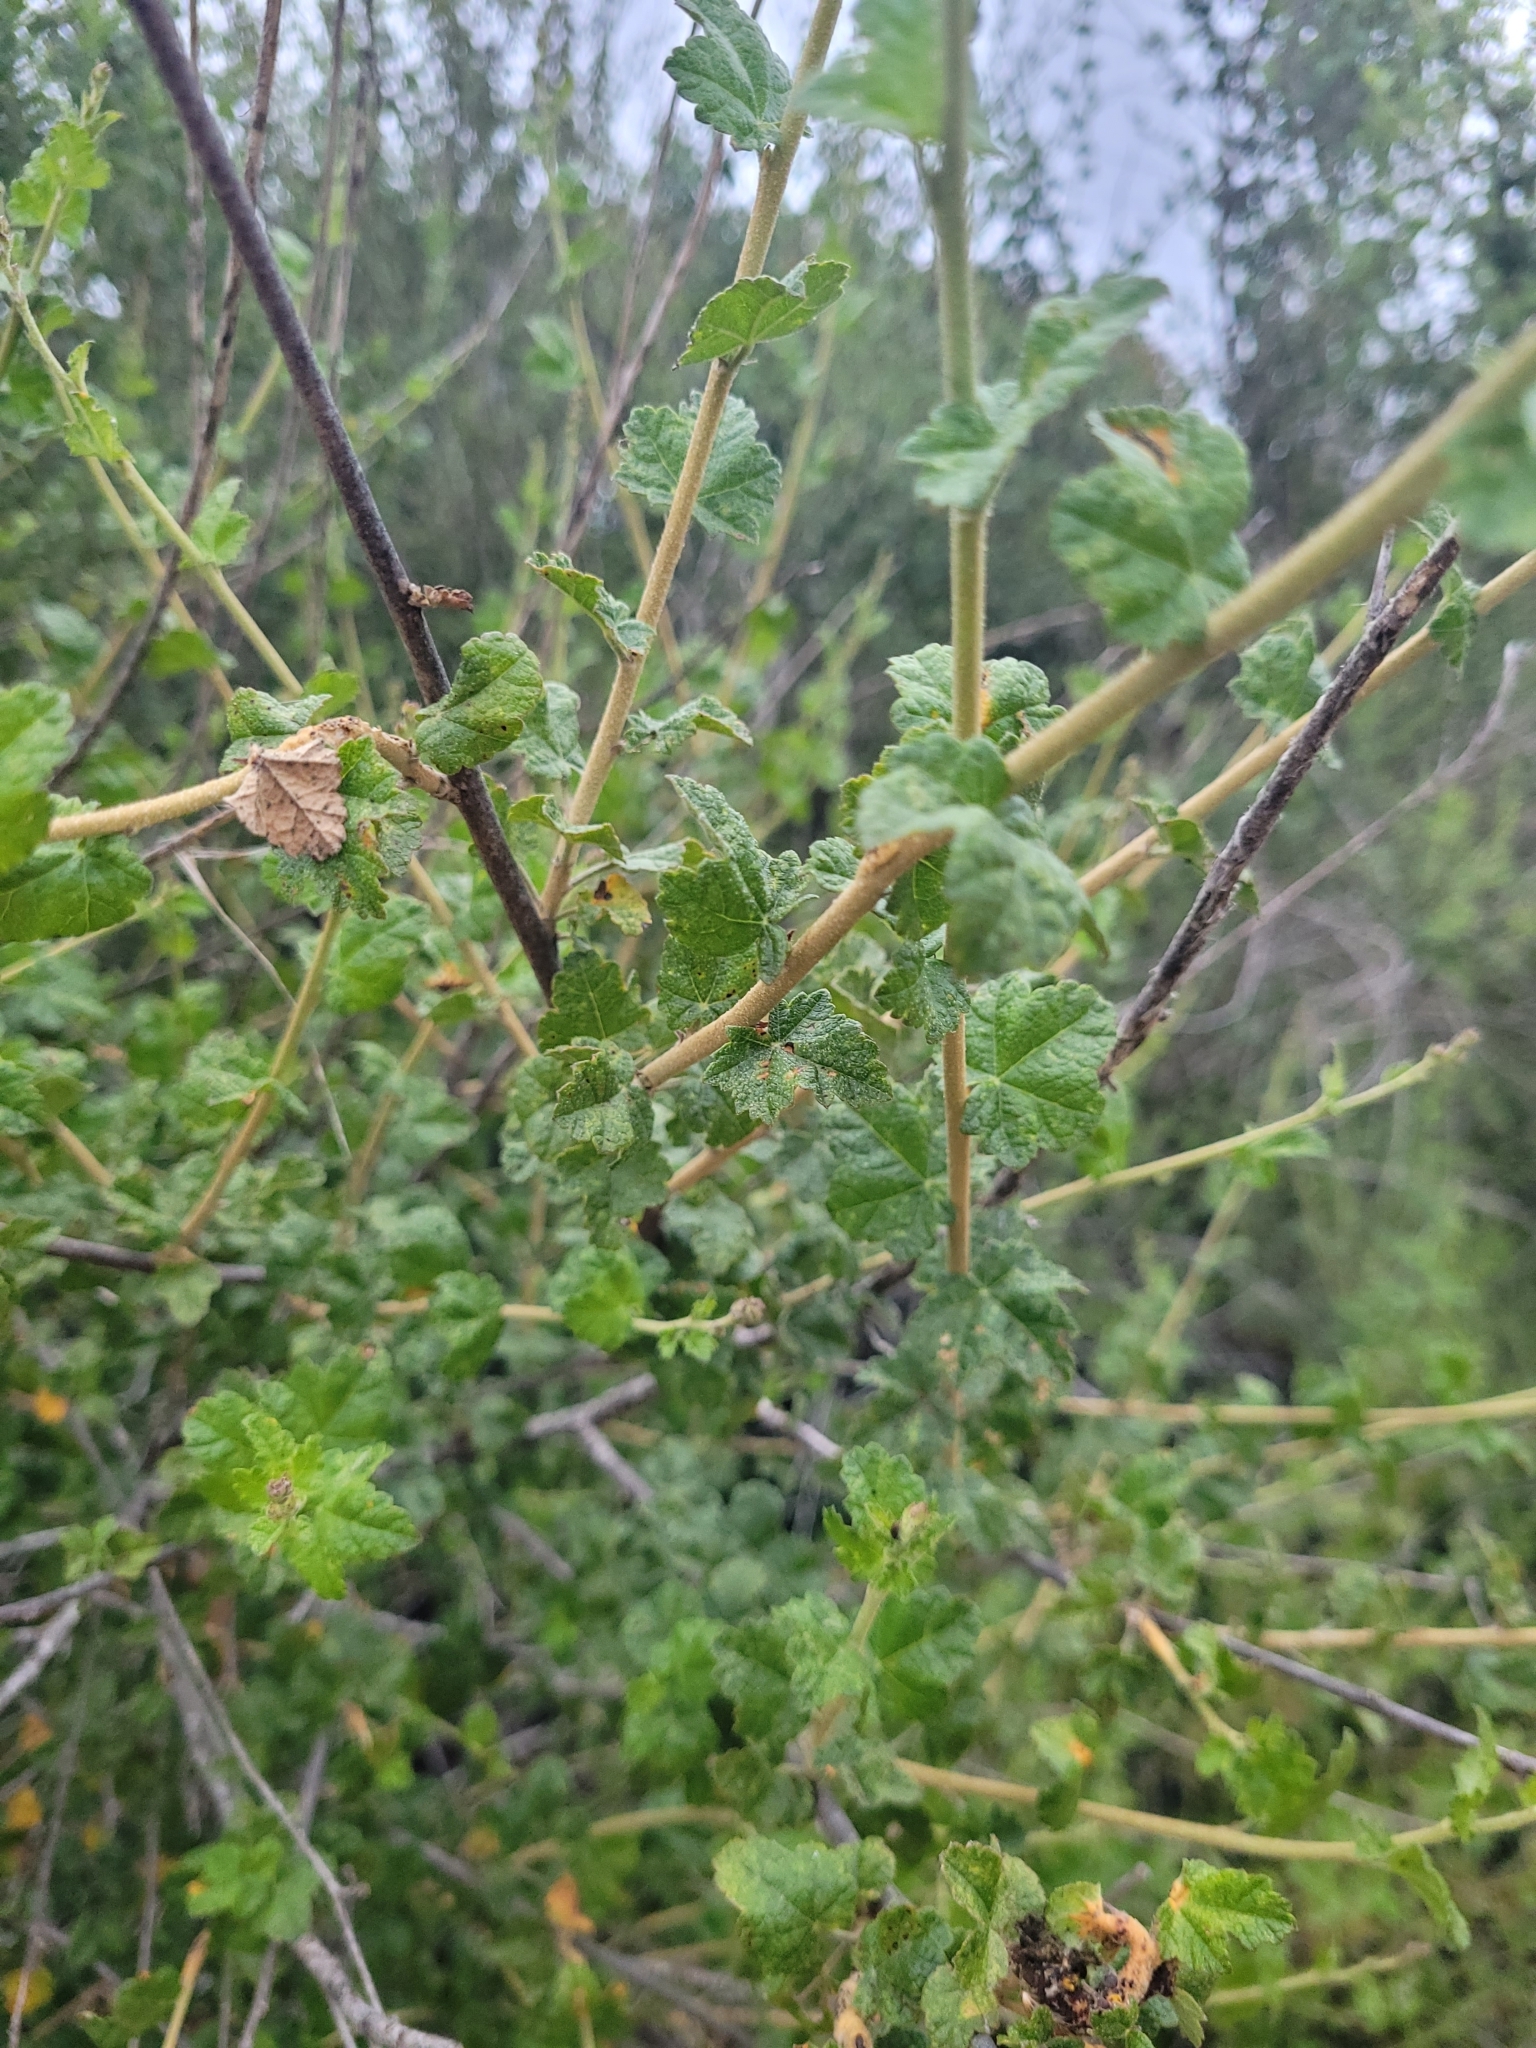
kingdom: Plantae
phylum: Tracheophyta
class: Magnoliopsida
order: Malvales
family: Malvaceae
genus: Malacothamnus
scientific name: Malacothamnus fasciculatus
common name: Sant cruz island bush-mallow
